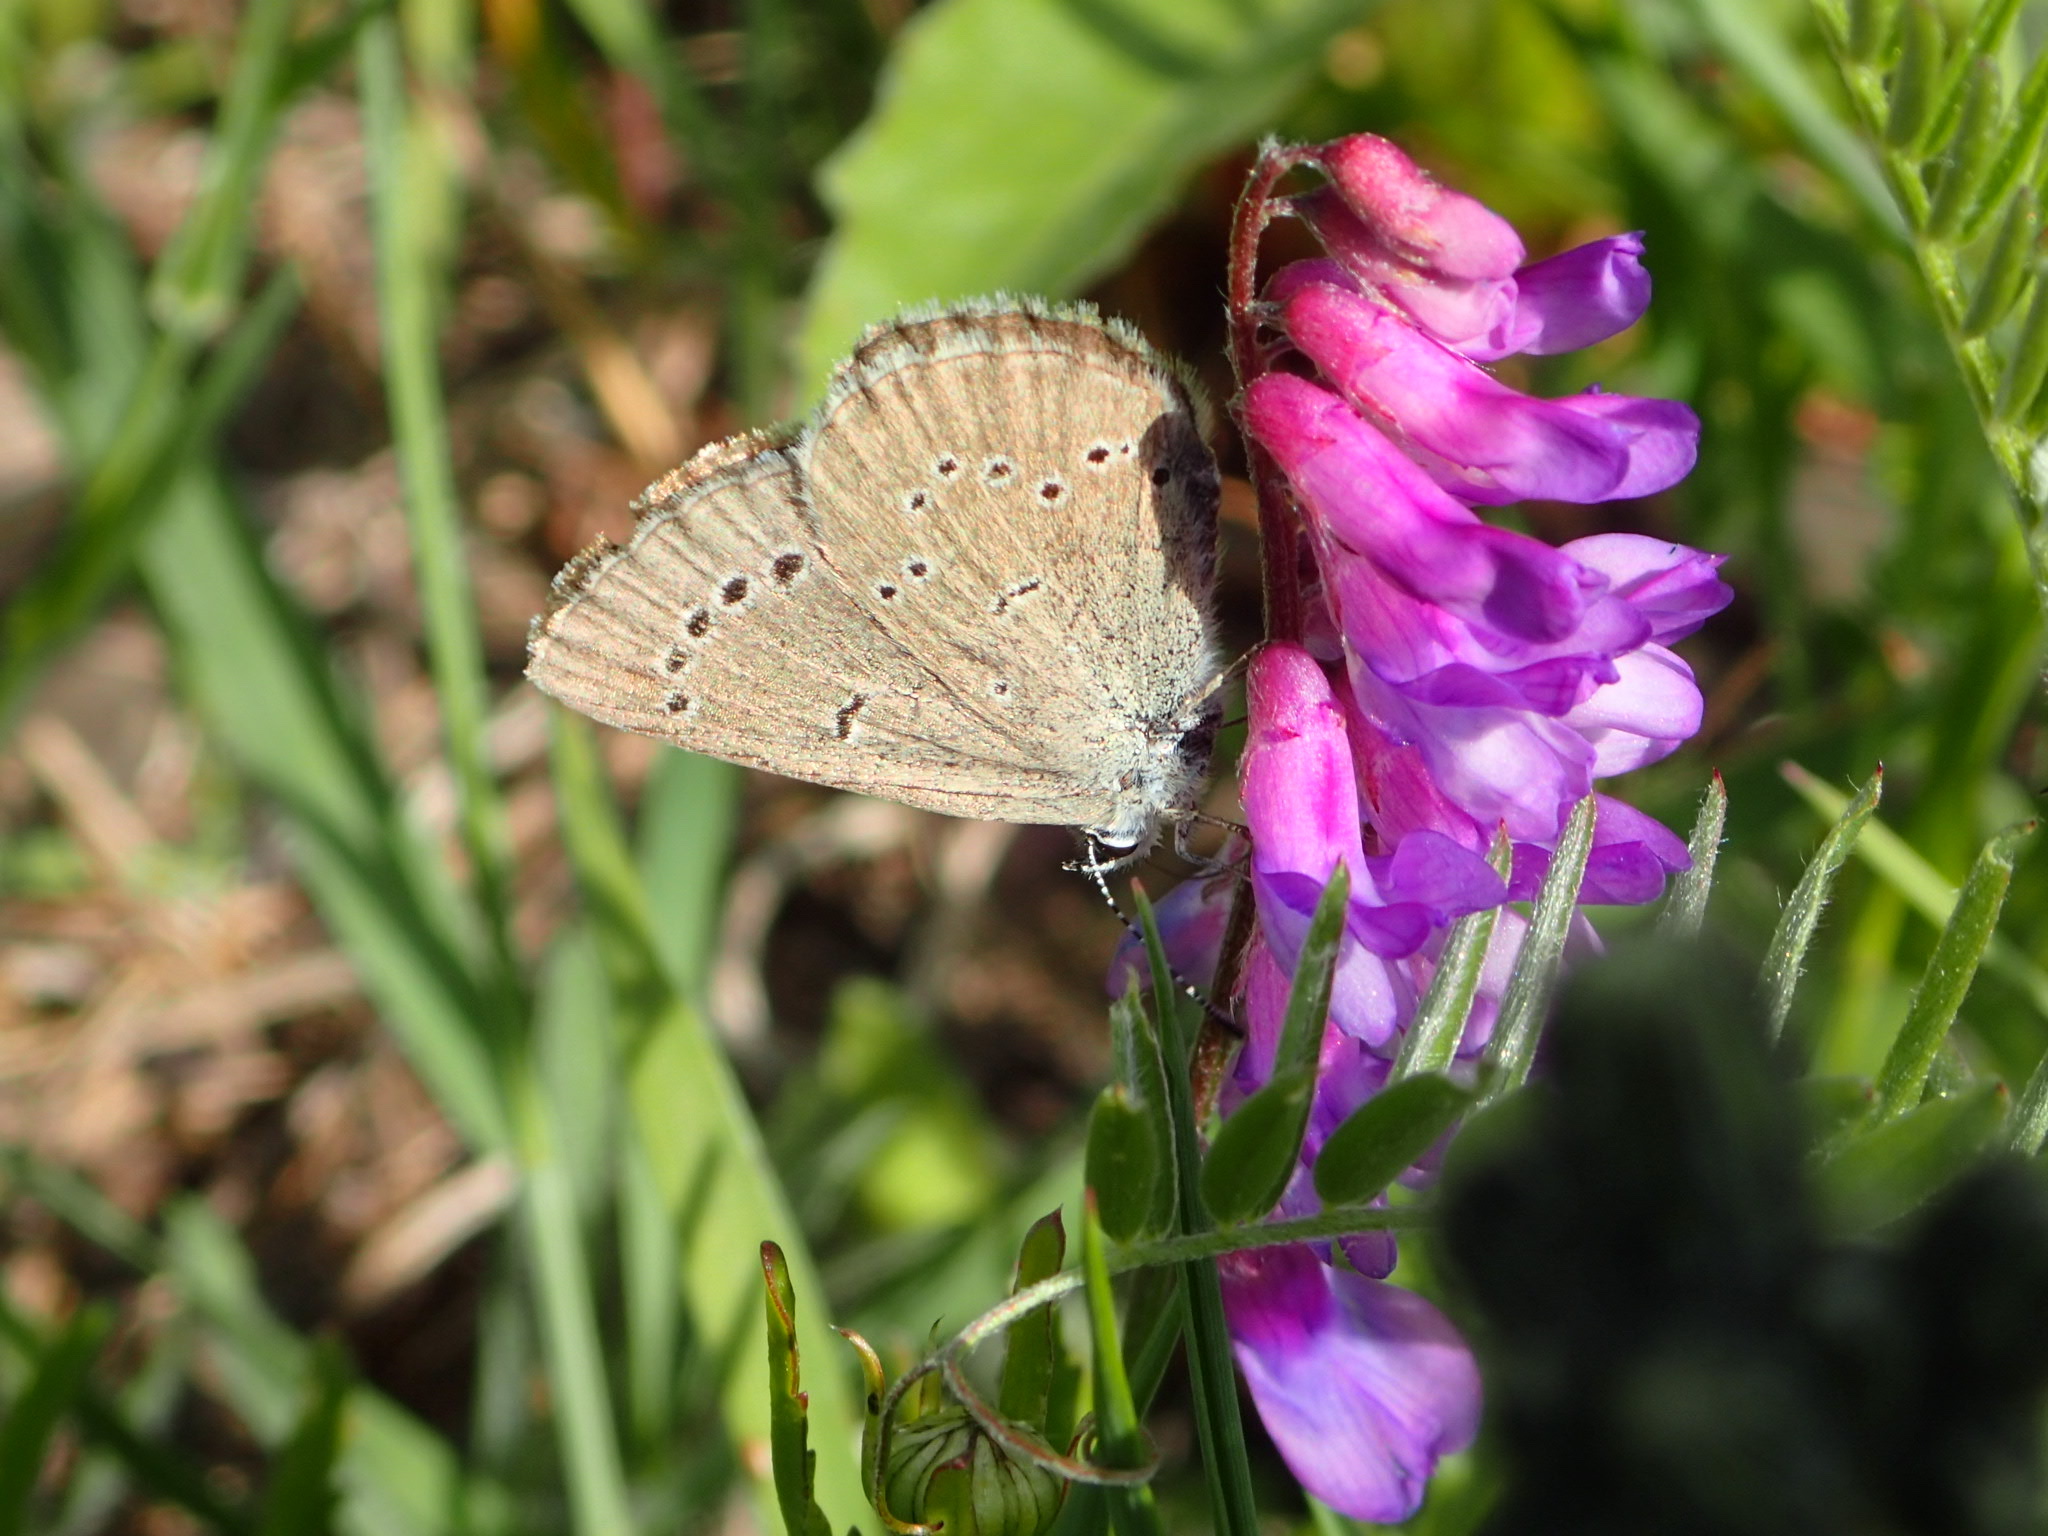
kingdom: Animalia
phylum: Arthropoda
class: Insecta
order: Lepidoptera
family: Lycaenidae
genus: Glaucopsyche
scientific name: Glaucopsyche lygdamus
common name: Silvery blue
